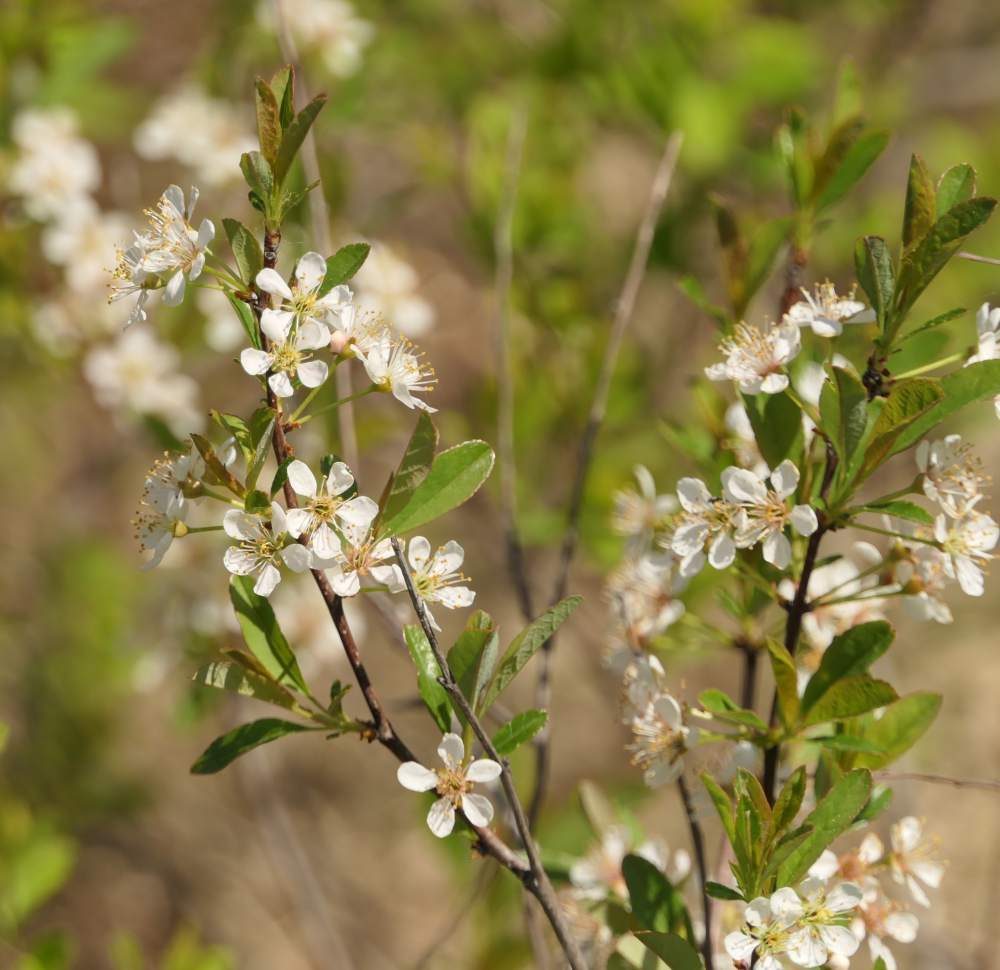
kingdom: Plantae
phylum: Tracheophyta
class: Magnoliopsida
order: Rosales
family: Rosaceae
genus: Prunus
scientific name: Prunus pumila
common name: Dwarf cherry
